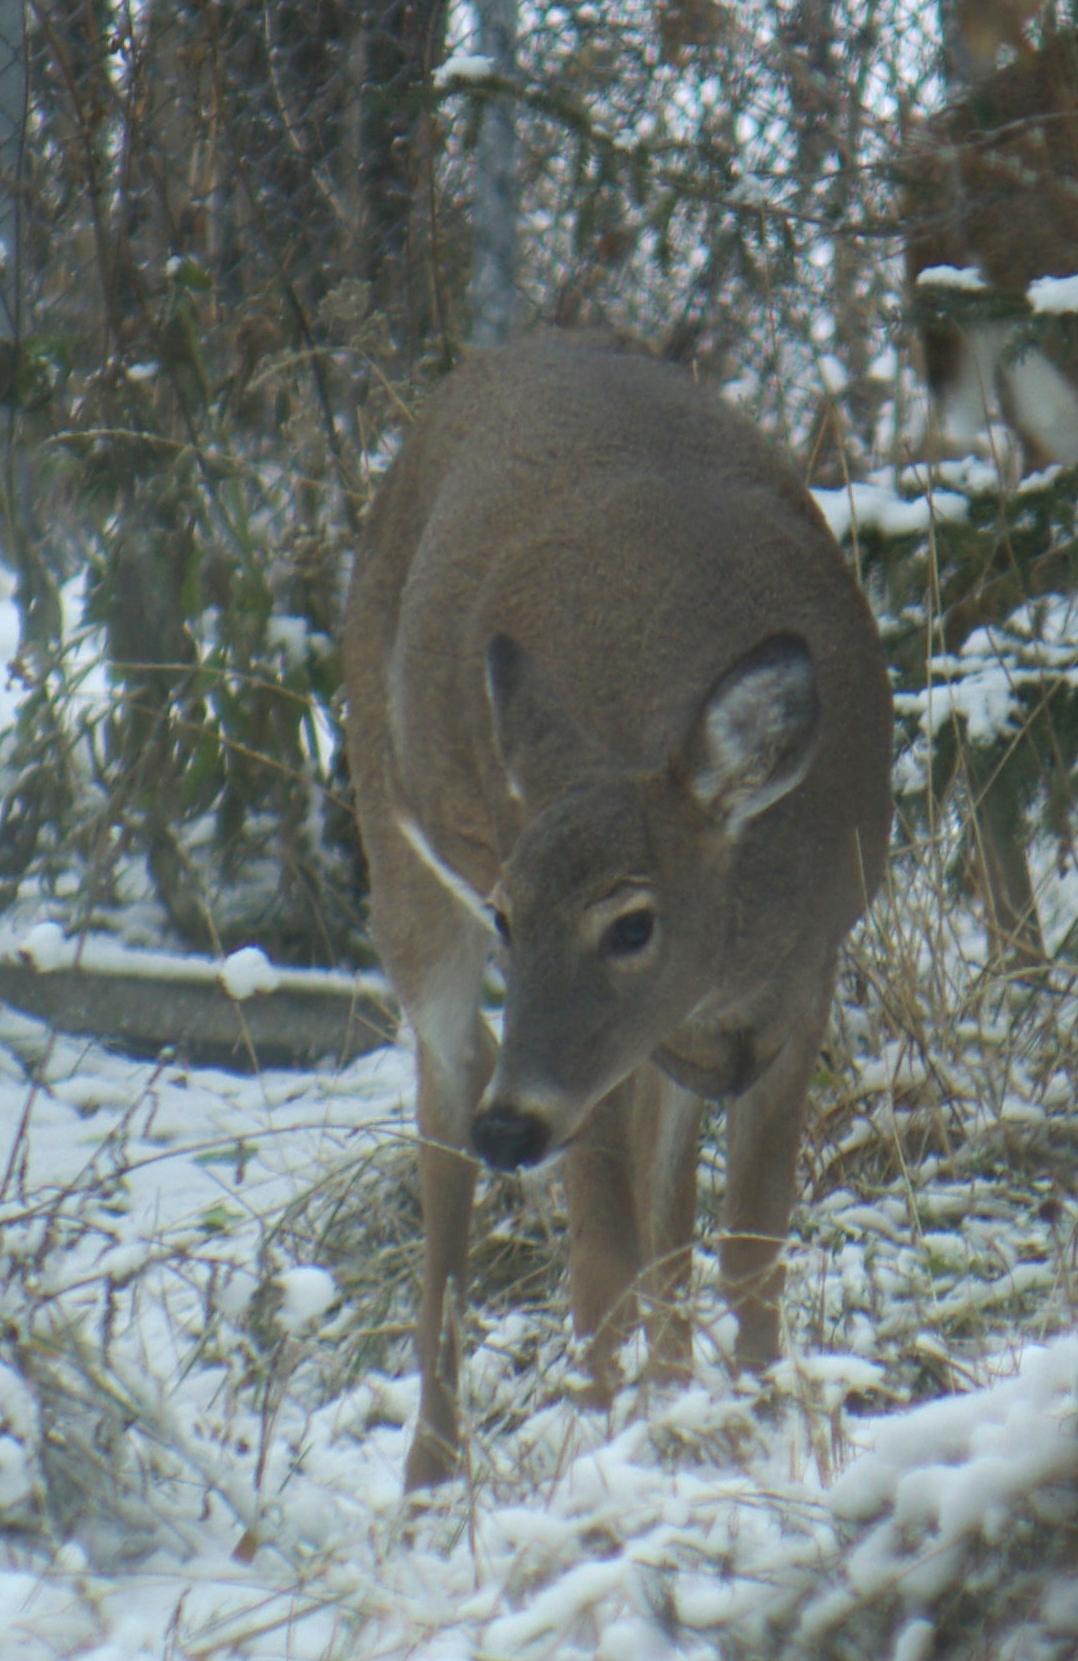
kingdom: Animalia
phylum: Chordata
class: Mammalia
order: Artiodactyla
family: Cervidae
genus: Odocoileus
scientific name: Odocoileus virginianus
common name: White-tailed deer
